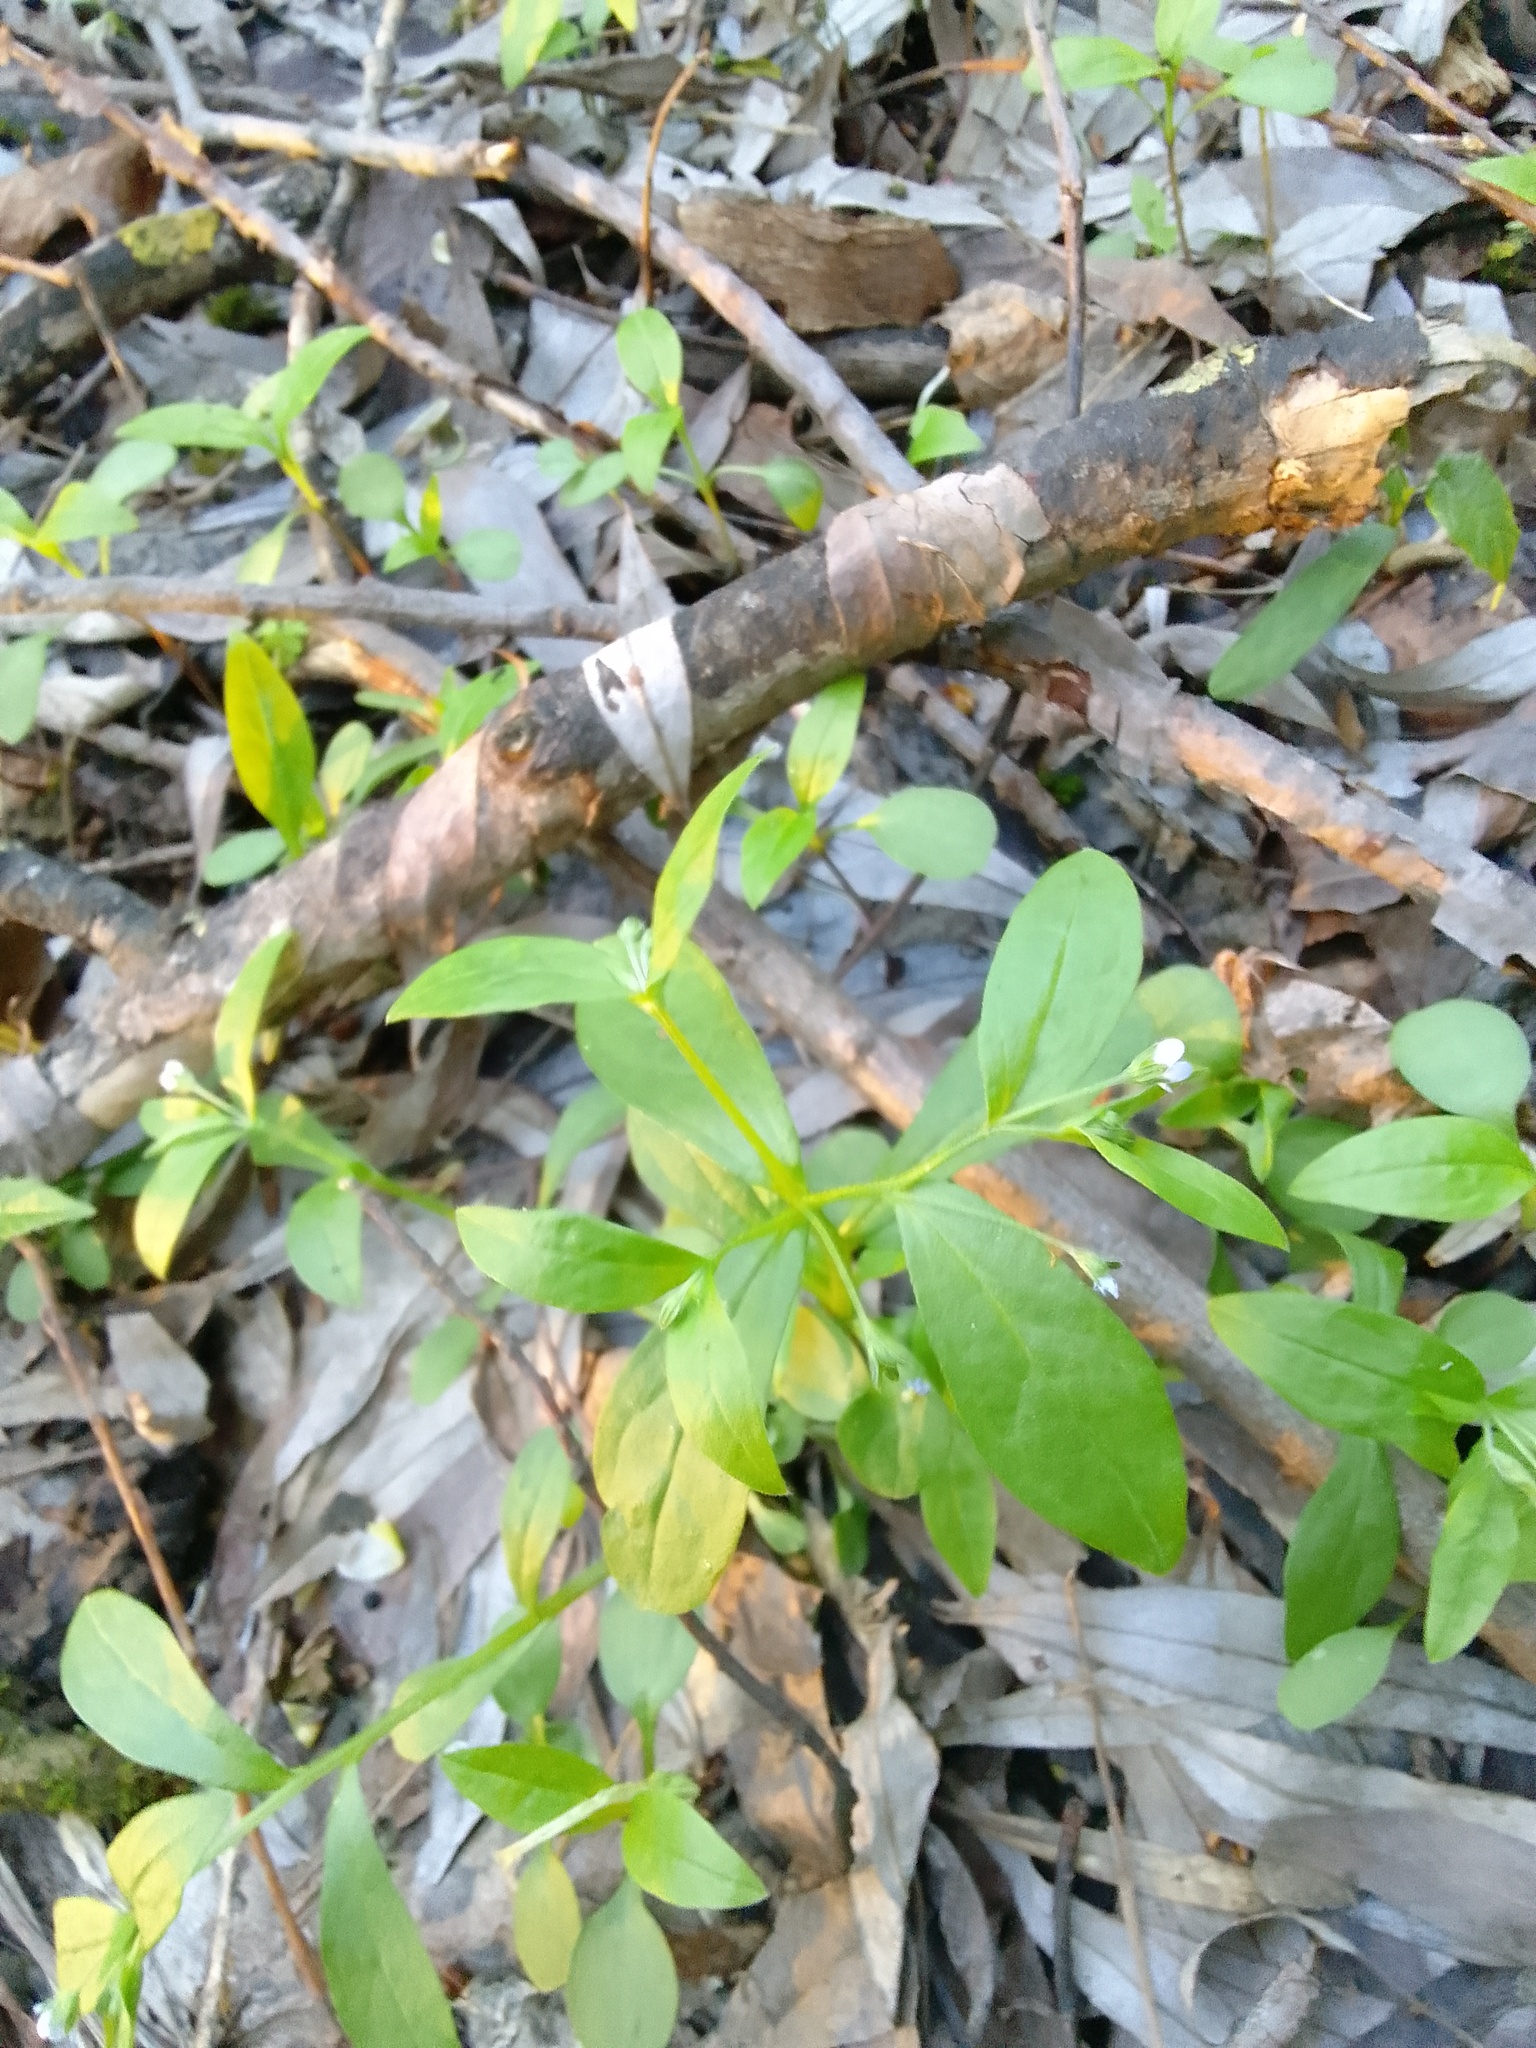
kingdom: Plantae
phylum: Tracheophyta
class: Magnoliopsida
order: Boraginales
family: Boraginaceae
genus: Memoremea
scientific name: Memoremea scorpioides
